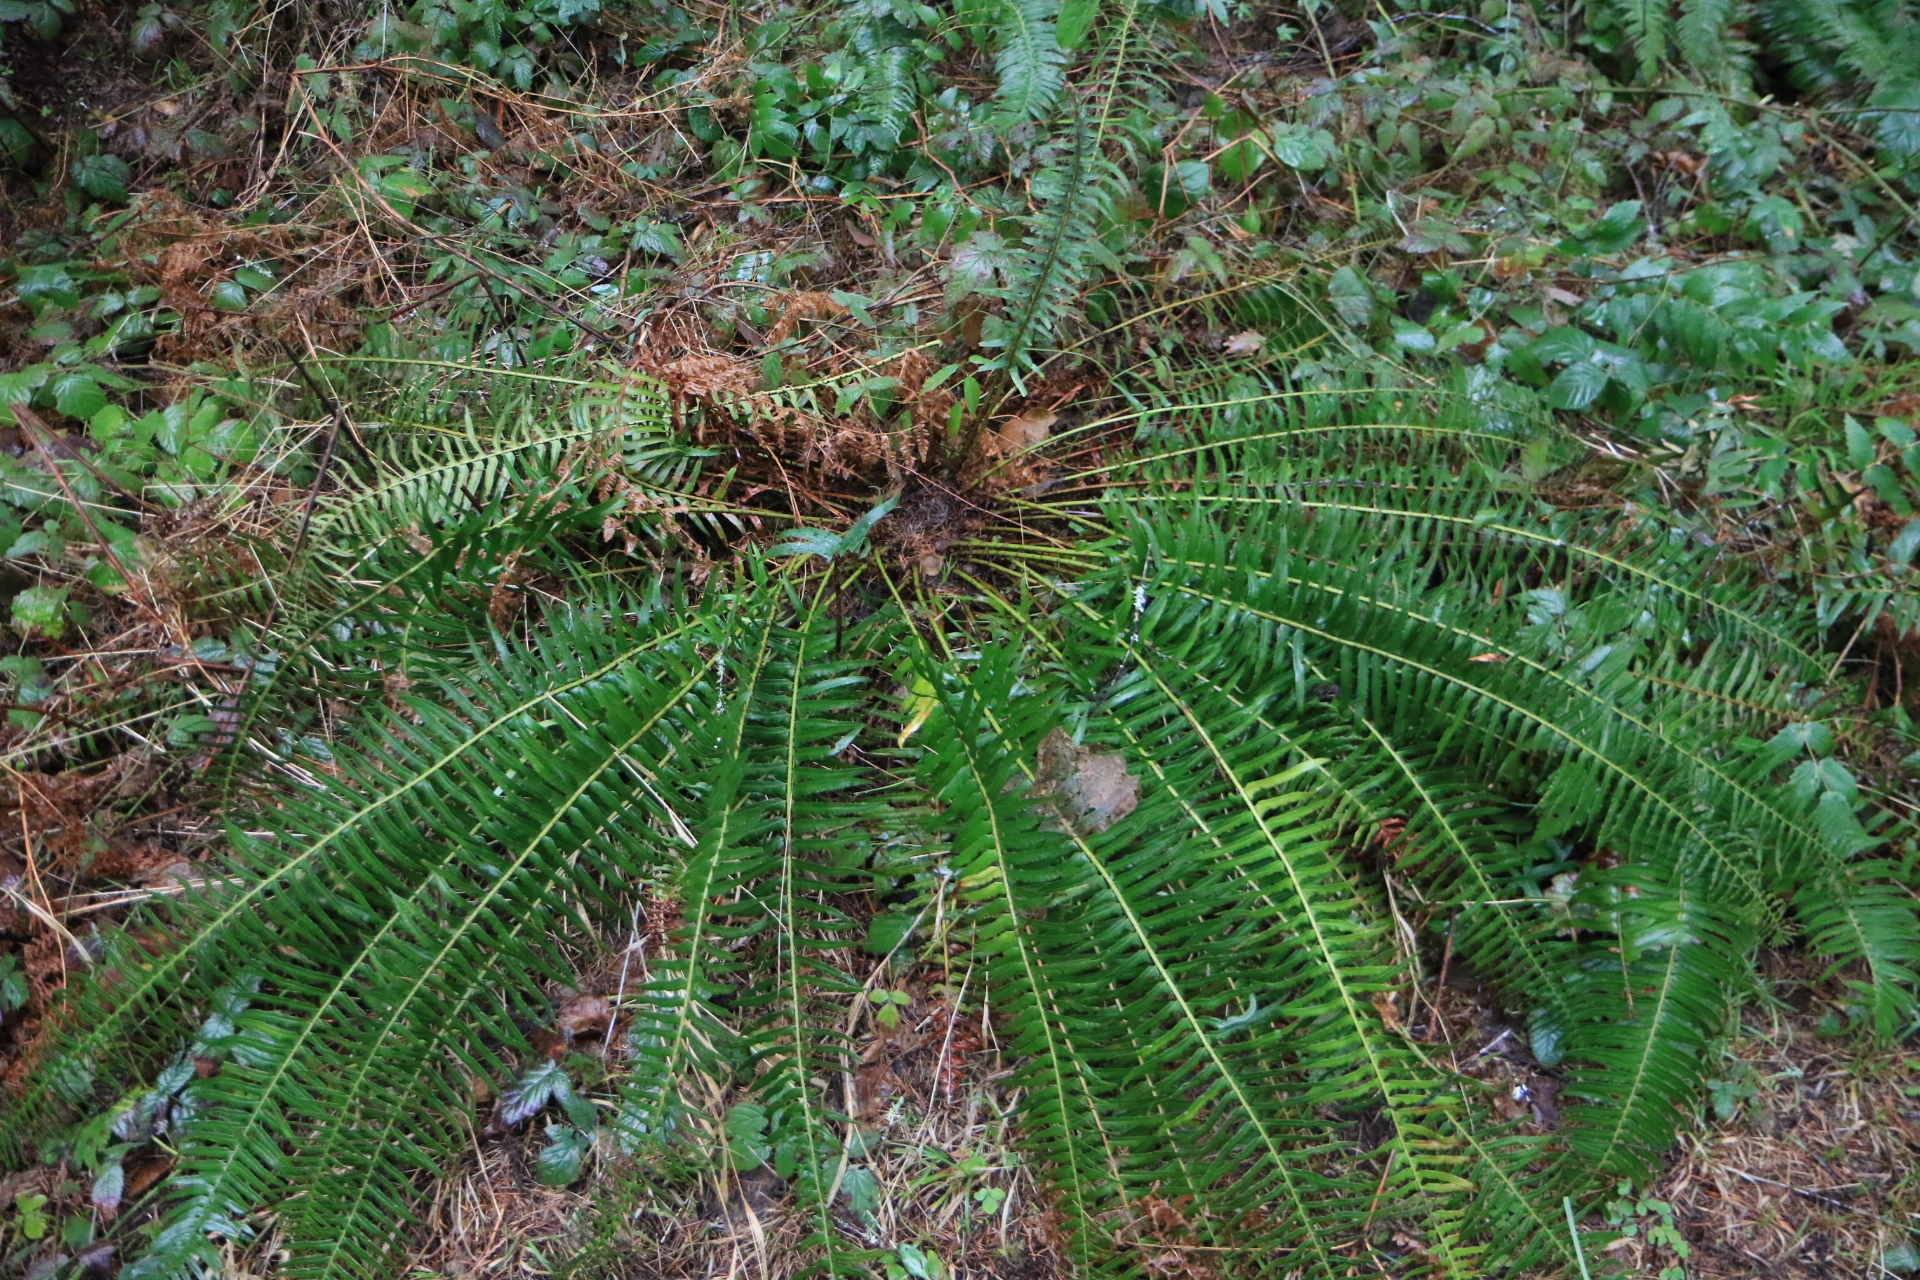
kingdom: Plantae
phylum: Tracheophyta
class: Polypodiopsida
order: Polypodiales
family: Dryopteridaceae
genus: Polystichum
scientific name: Polystichum munitum
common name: Western sword-fern
